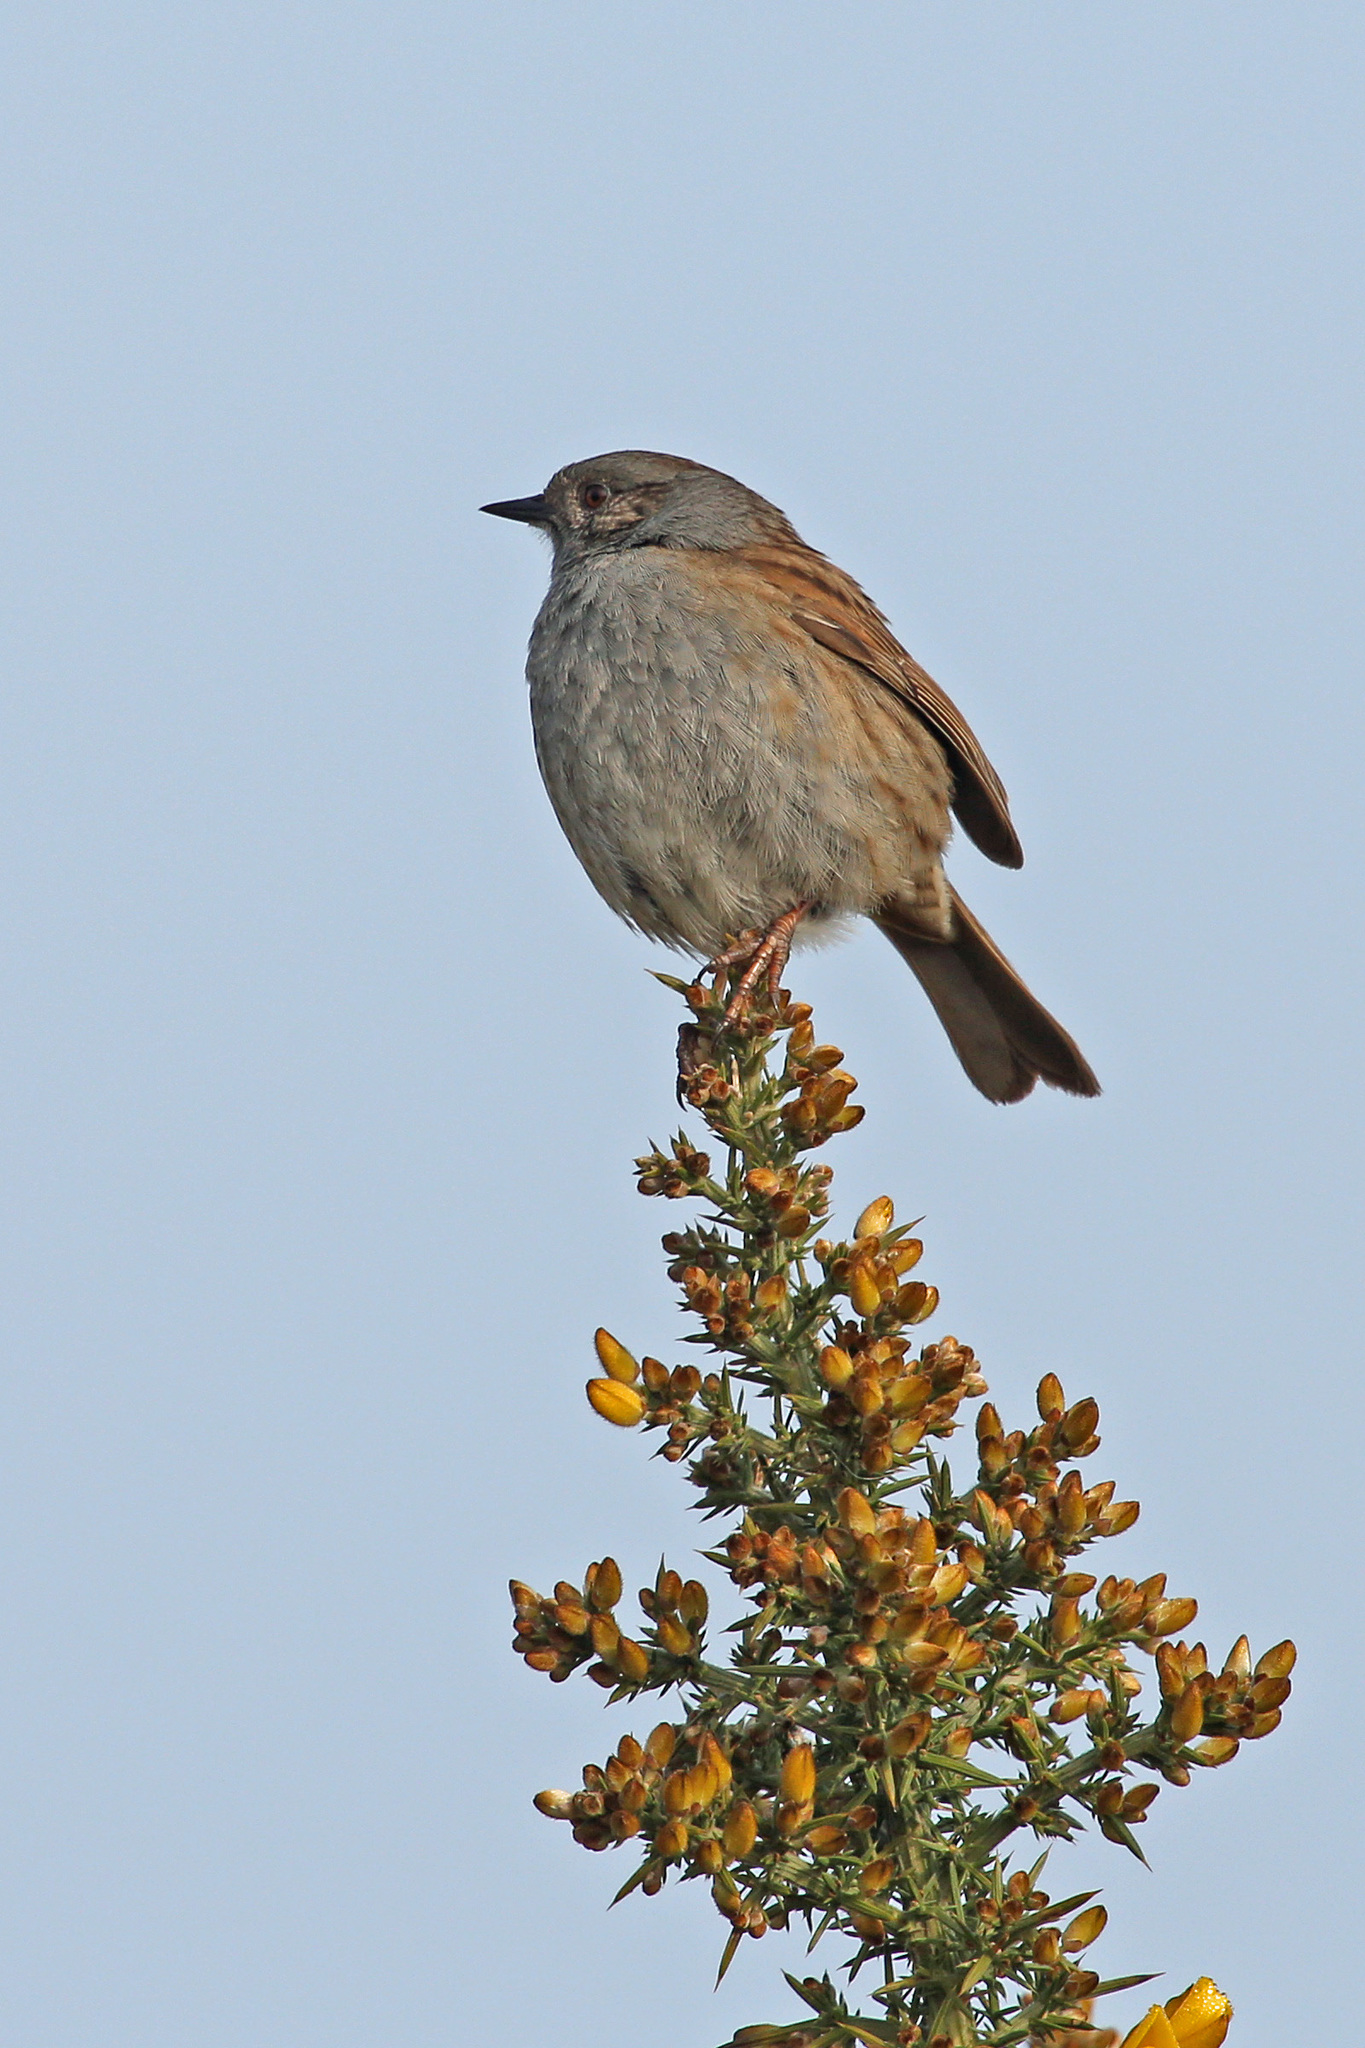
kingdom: Animalia
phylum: Chordata
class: Aves
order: Passeriformes
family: Prunellidae
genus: Prunella
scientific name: Prunella modularis
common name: Dunnock
